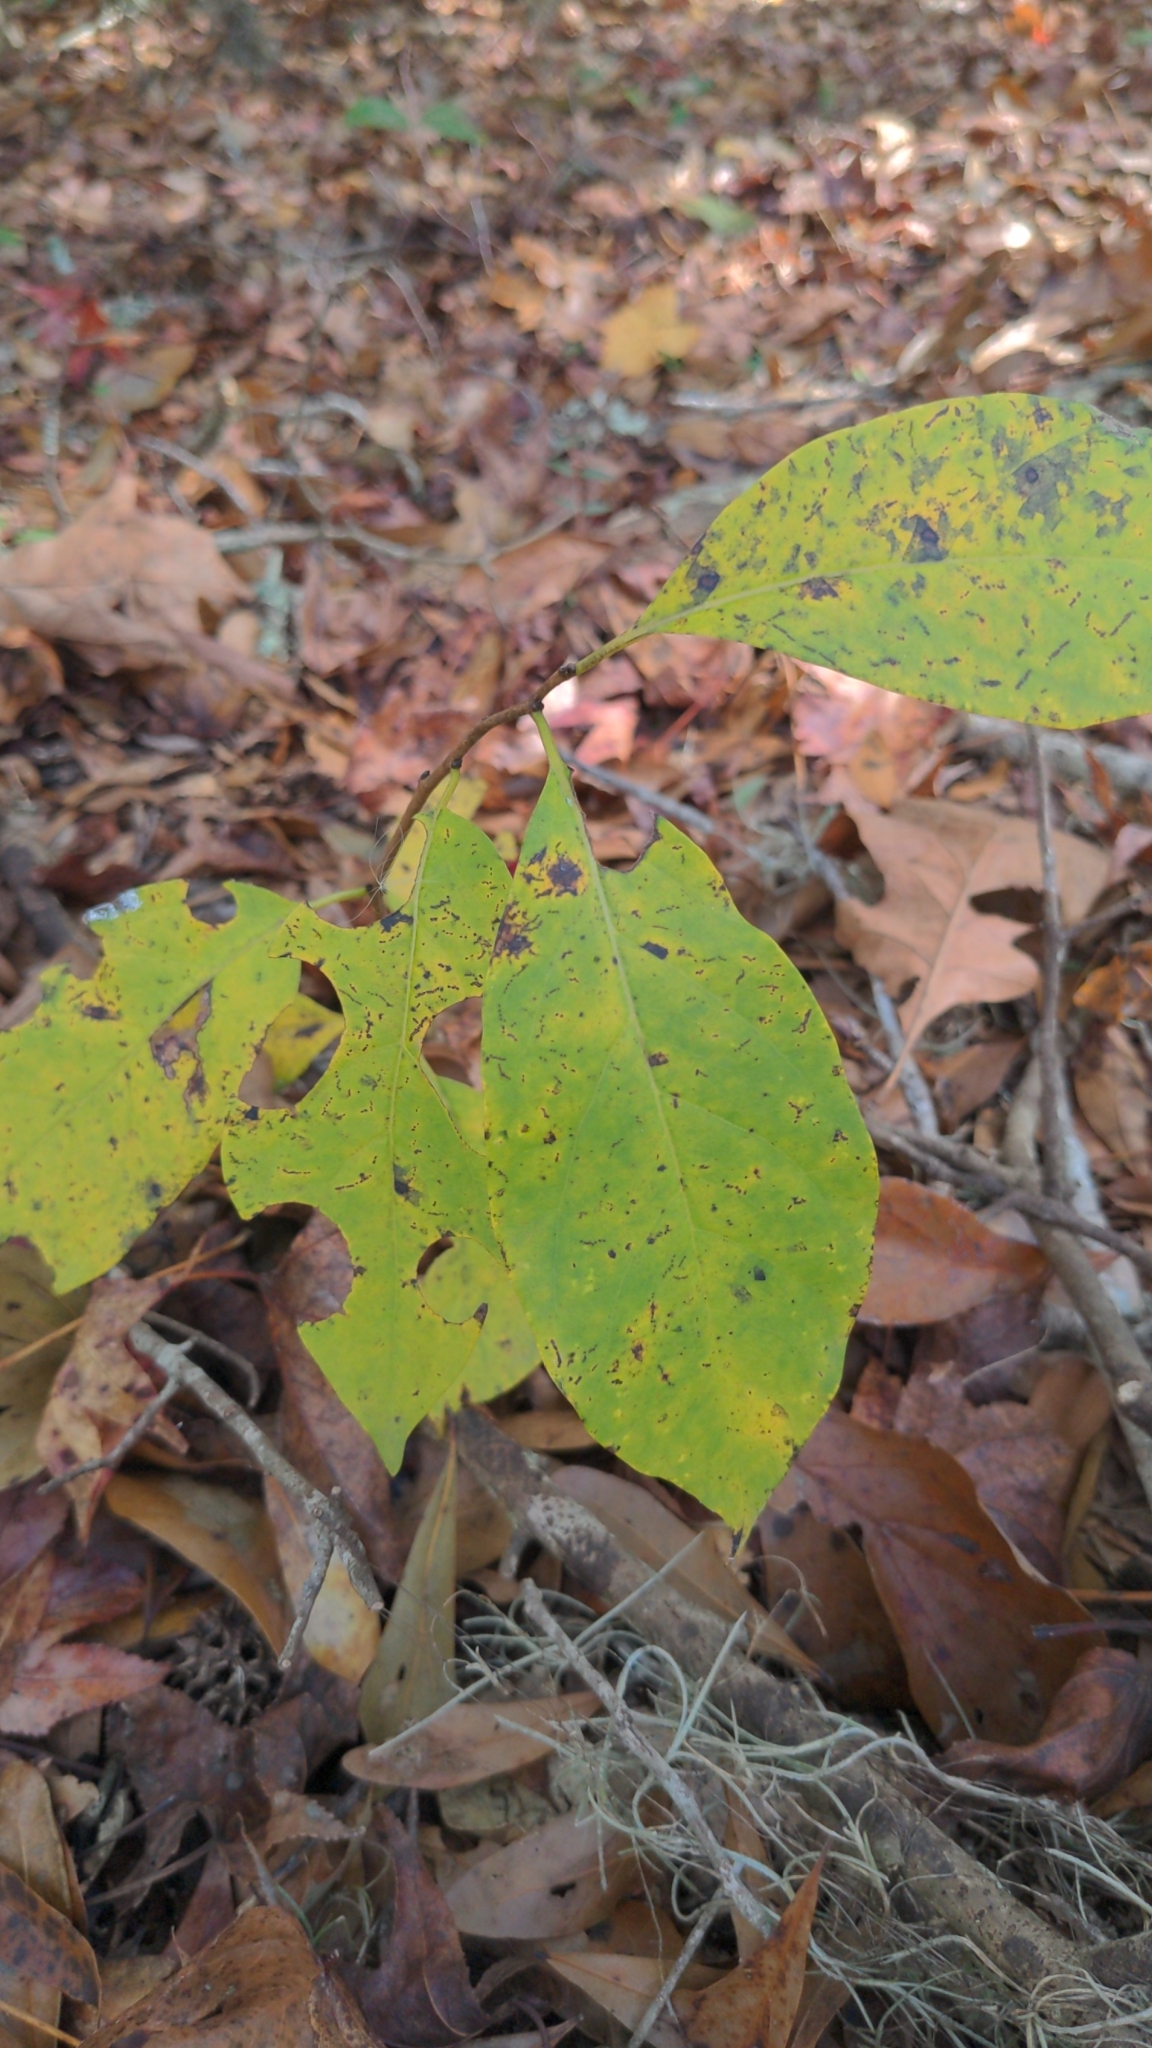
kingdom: Plantae
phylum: Tracheophyta
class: Magnoliopsida
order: Ericales
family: Ebenaceae
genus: Diospyros
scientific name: Diospyros virginiana
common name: Persimmon
